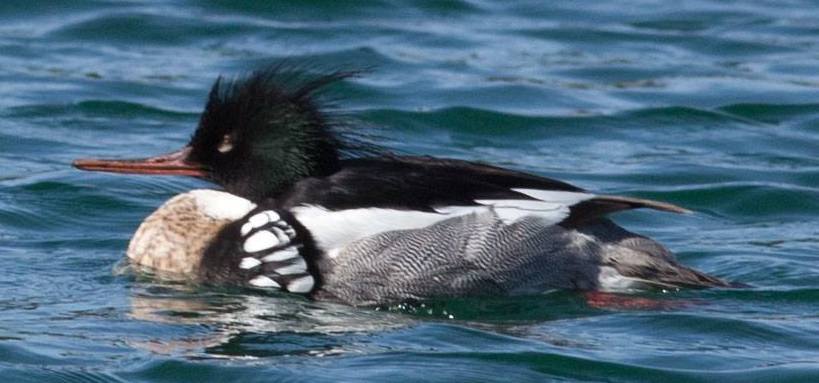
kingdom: Animalia
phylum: Chordata
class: Aves
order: Anseriformes
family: Anatidae
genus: Mergus
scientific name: Mergus serrator
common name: Red-breasted merganser
